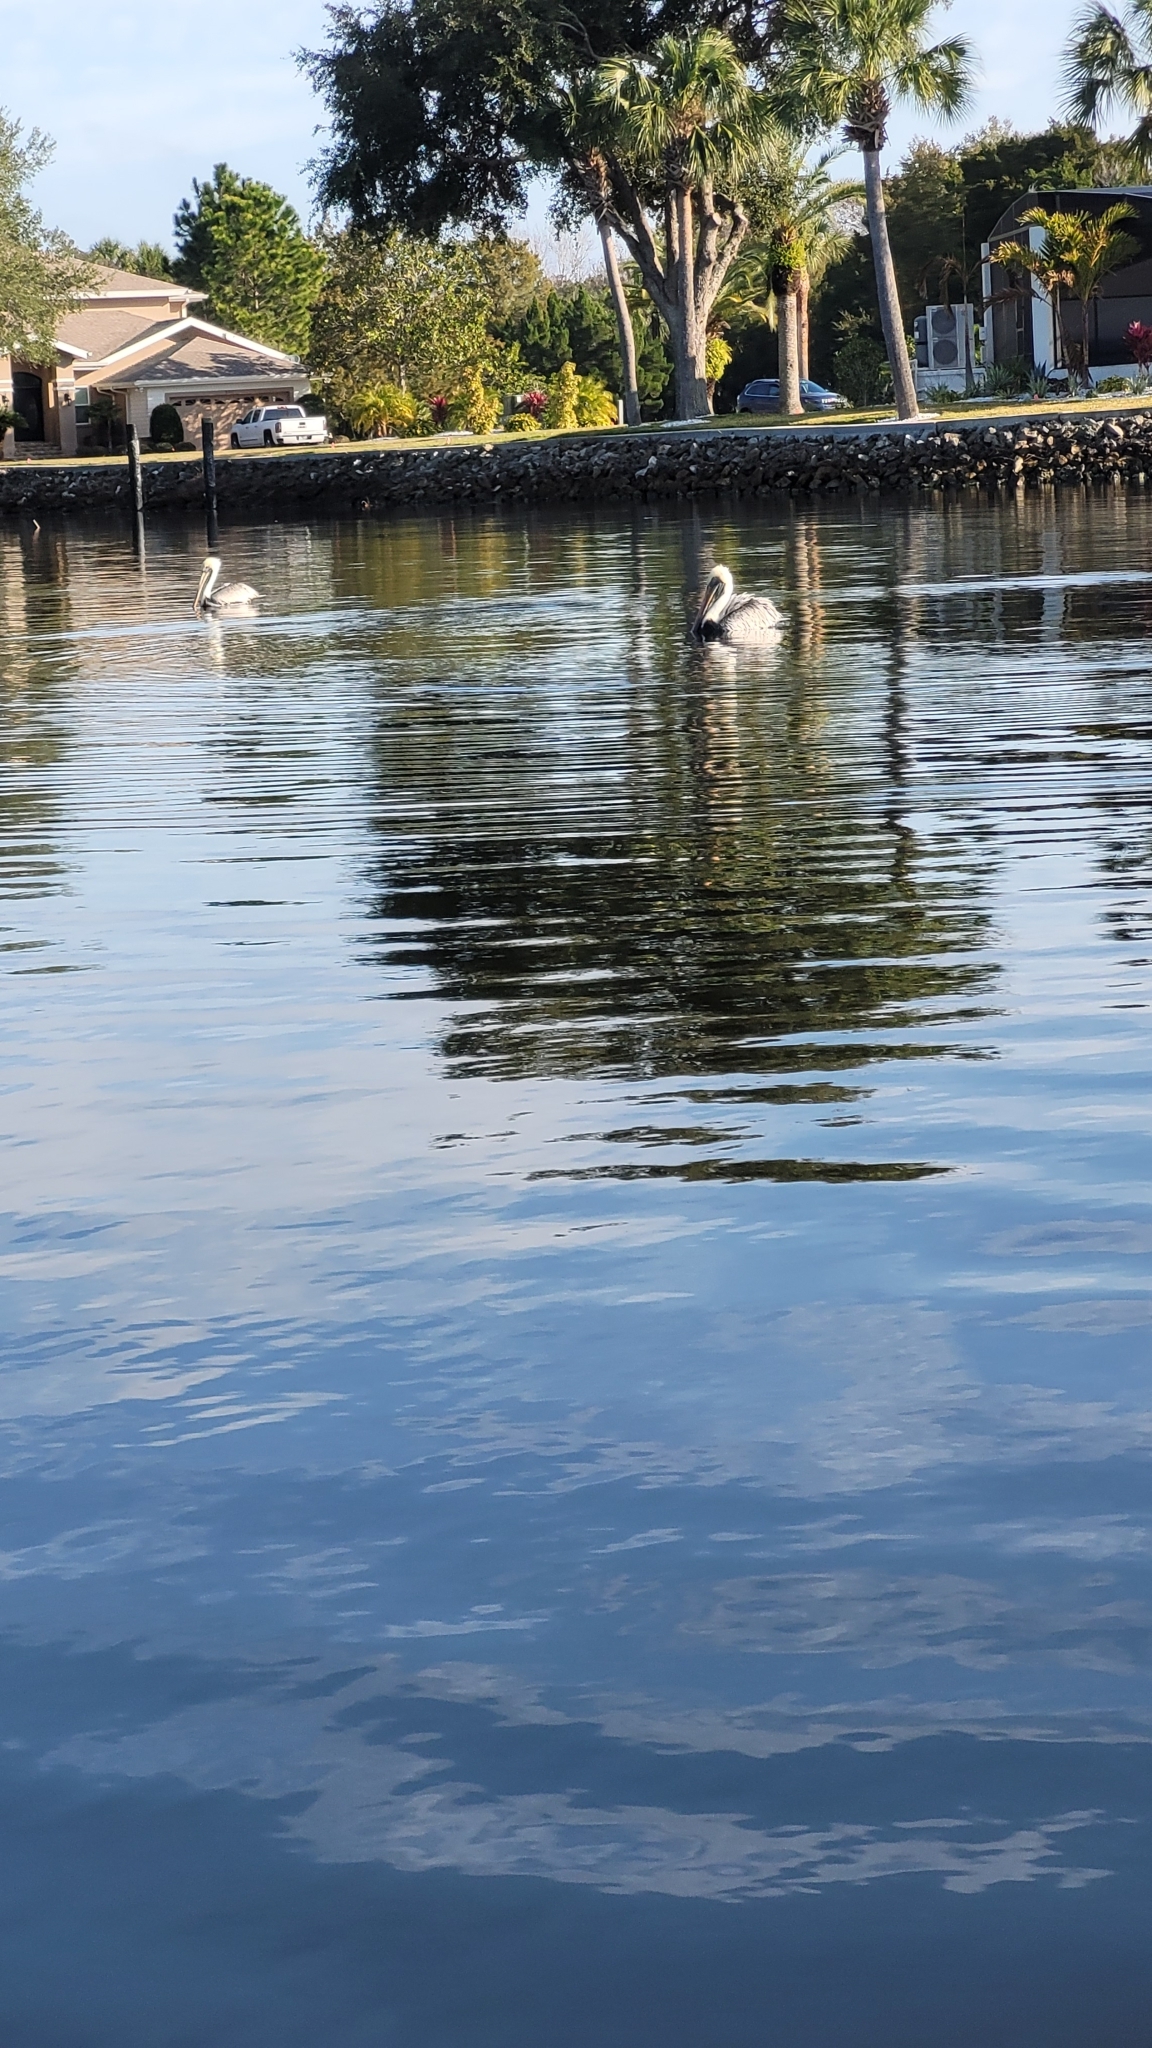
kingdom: Animalia
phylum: Chordata
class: Aves
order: Pelecaniformes
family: Pelecanidae
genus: Pelecanus
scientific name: Pelecanus occidentalis
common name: Brown pelican
